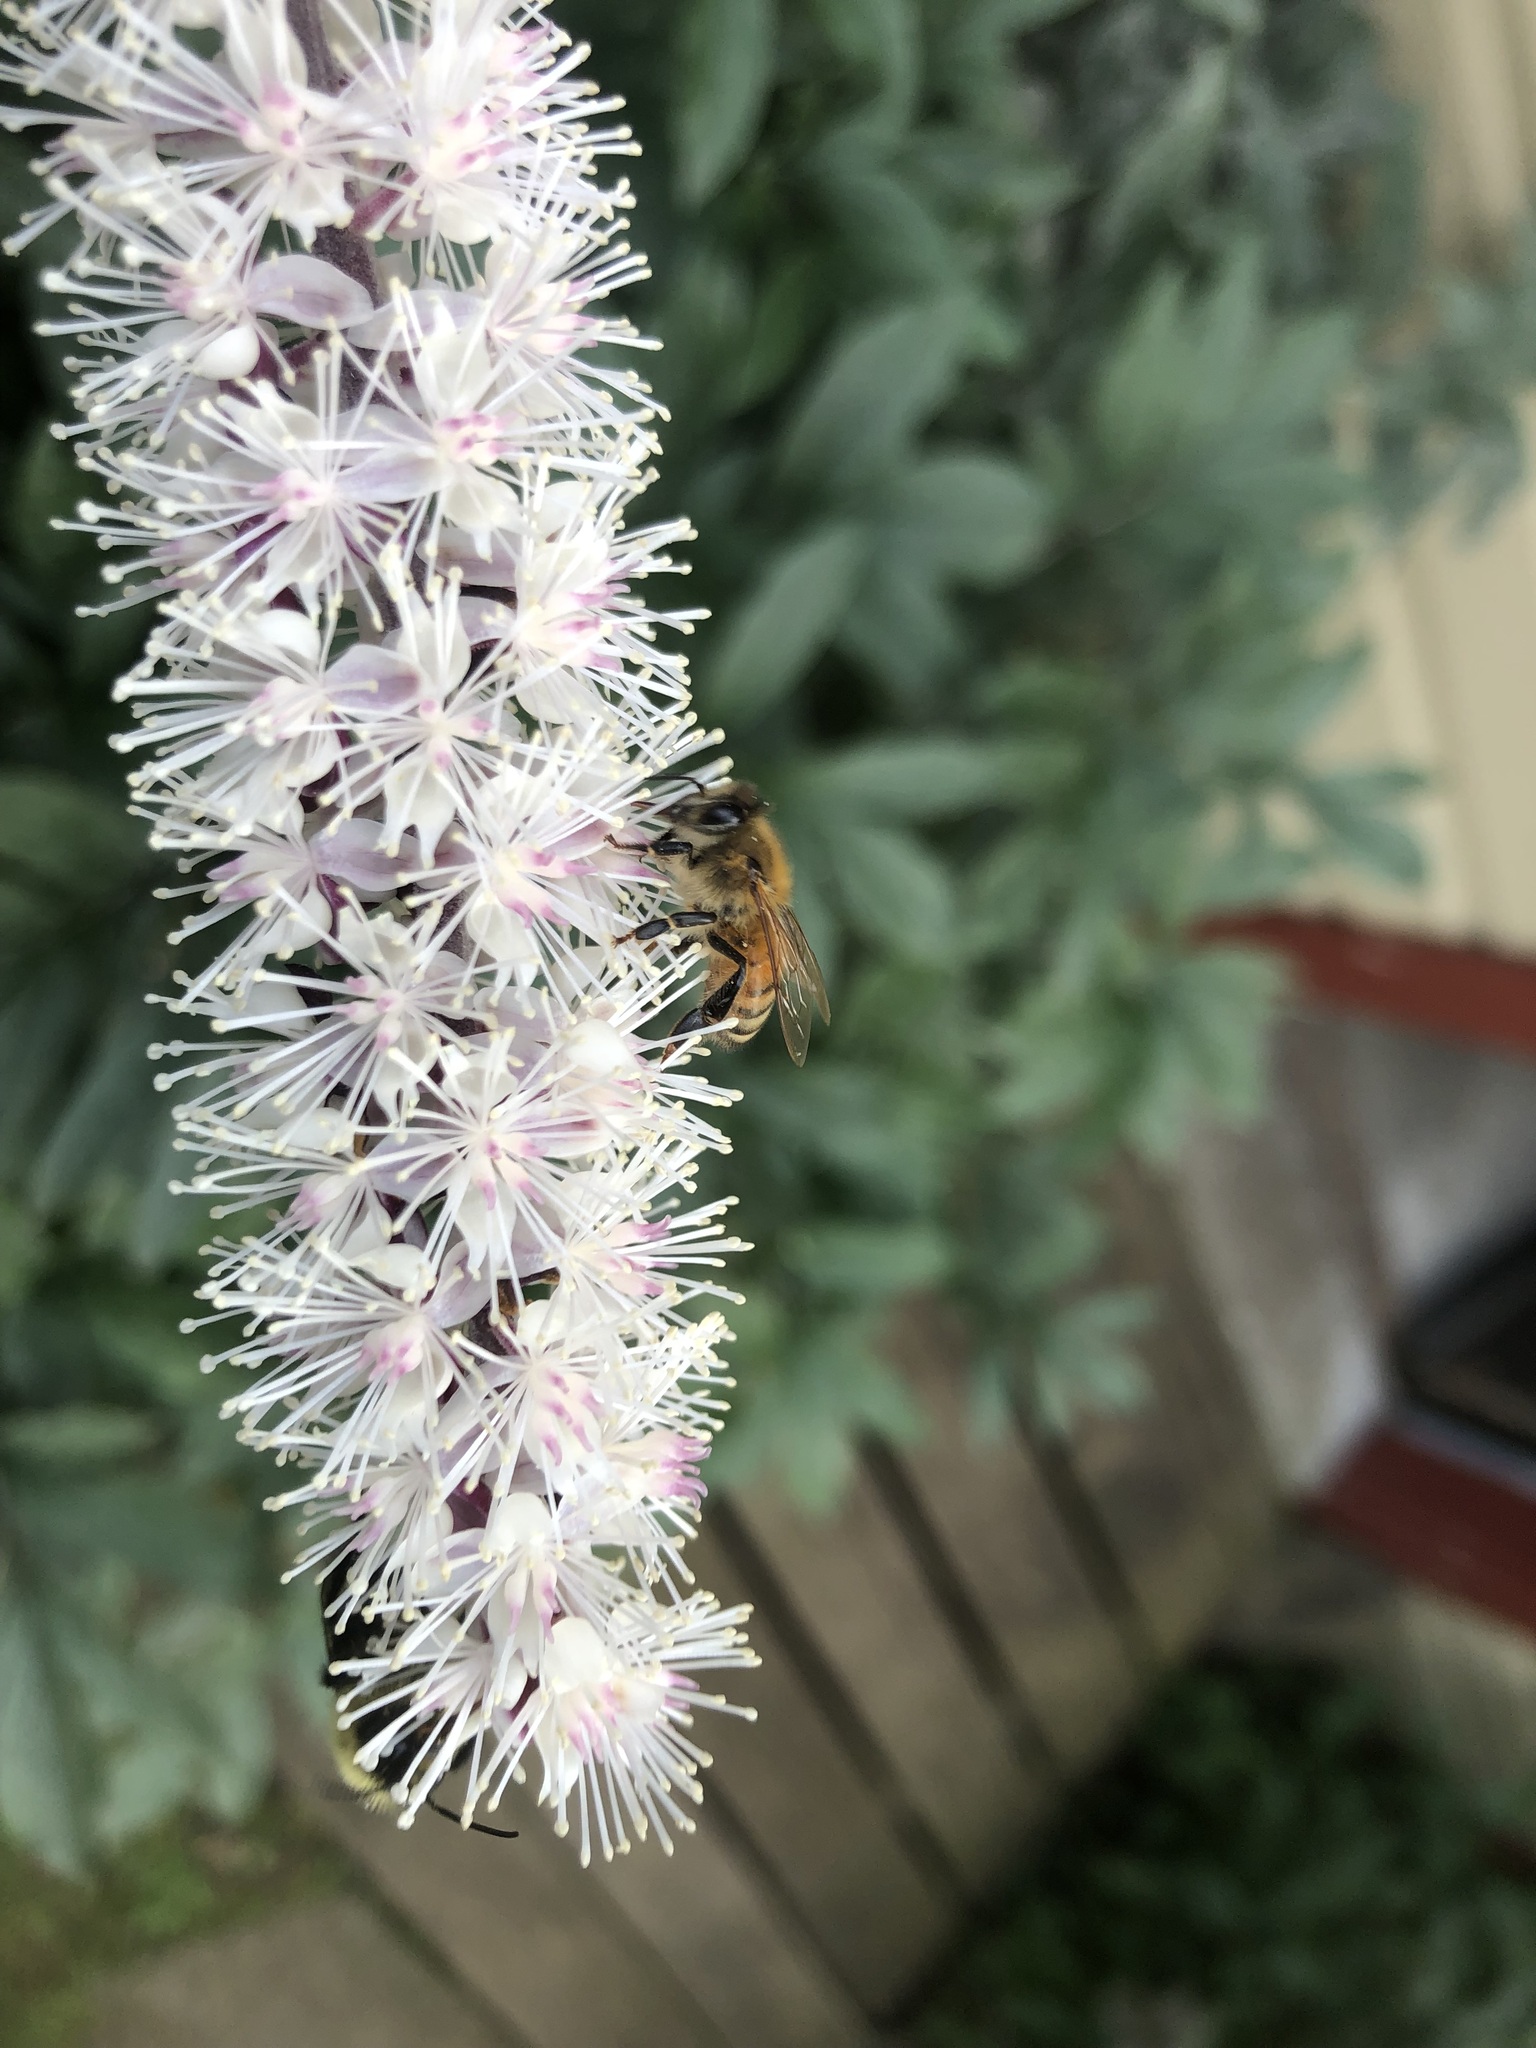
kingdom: Animalia
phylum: Arthropoda
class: Insecta
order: Hymenoptera
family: Apidae
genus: Bombus
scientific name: Bombus impatiens
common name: Common eastern bumble bee
